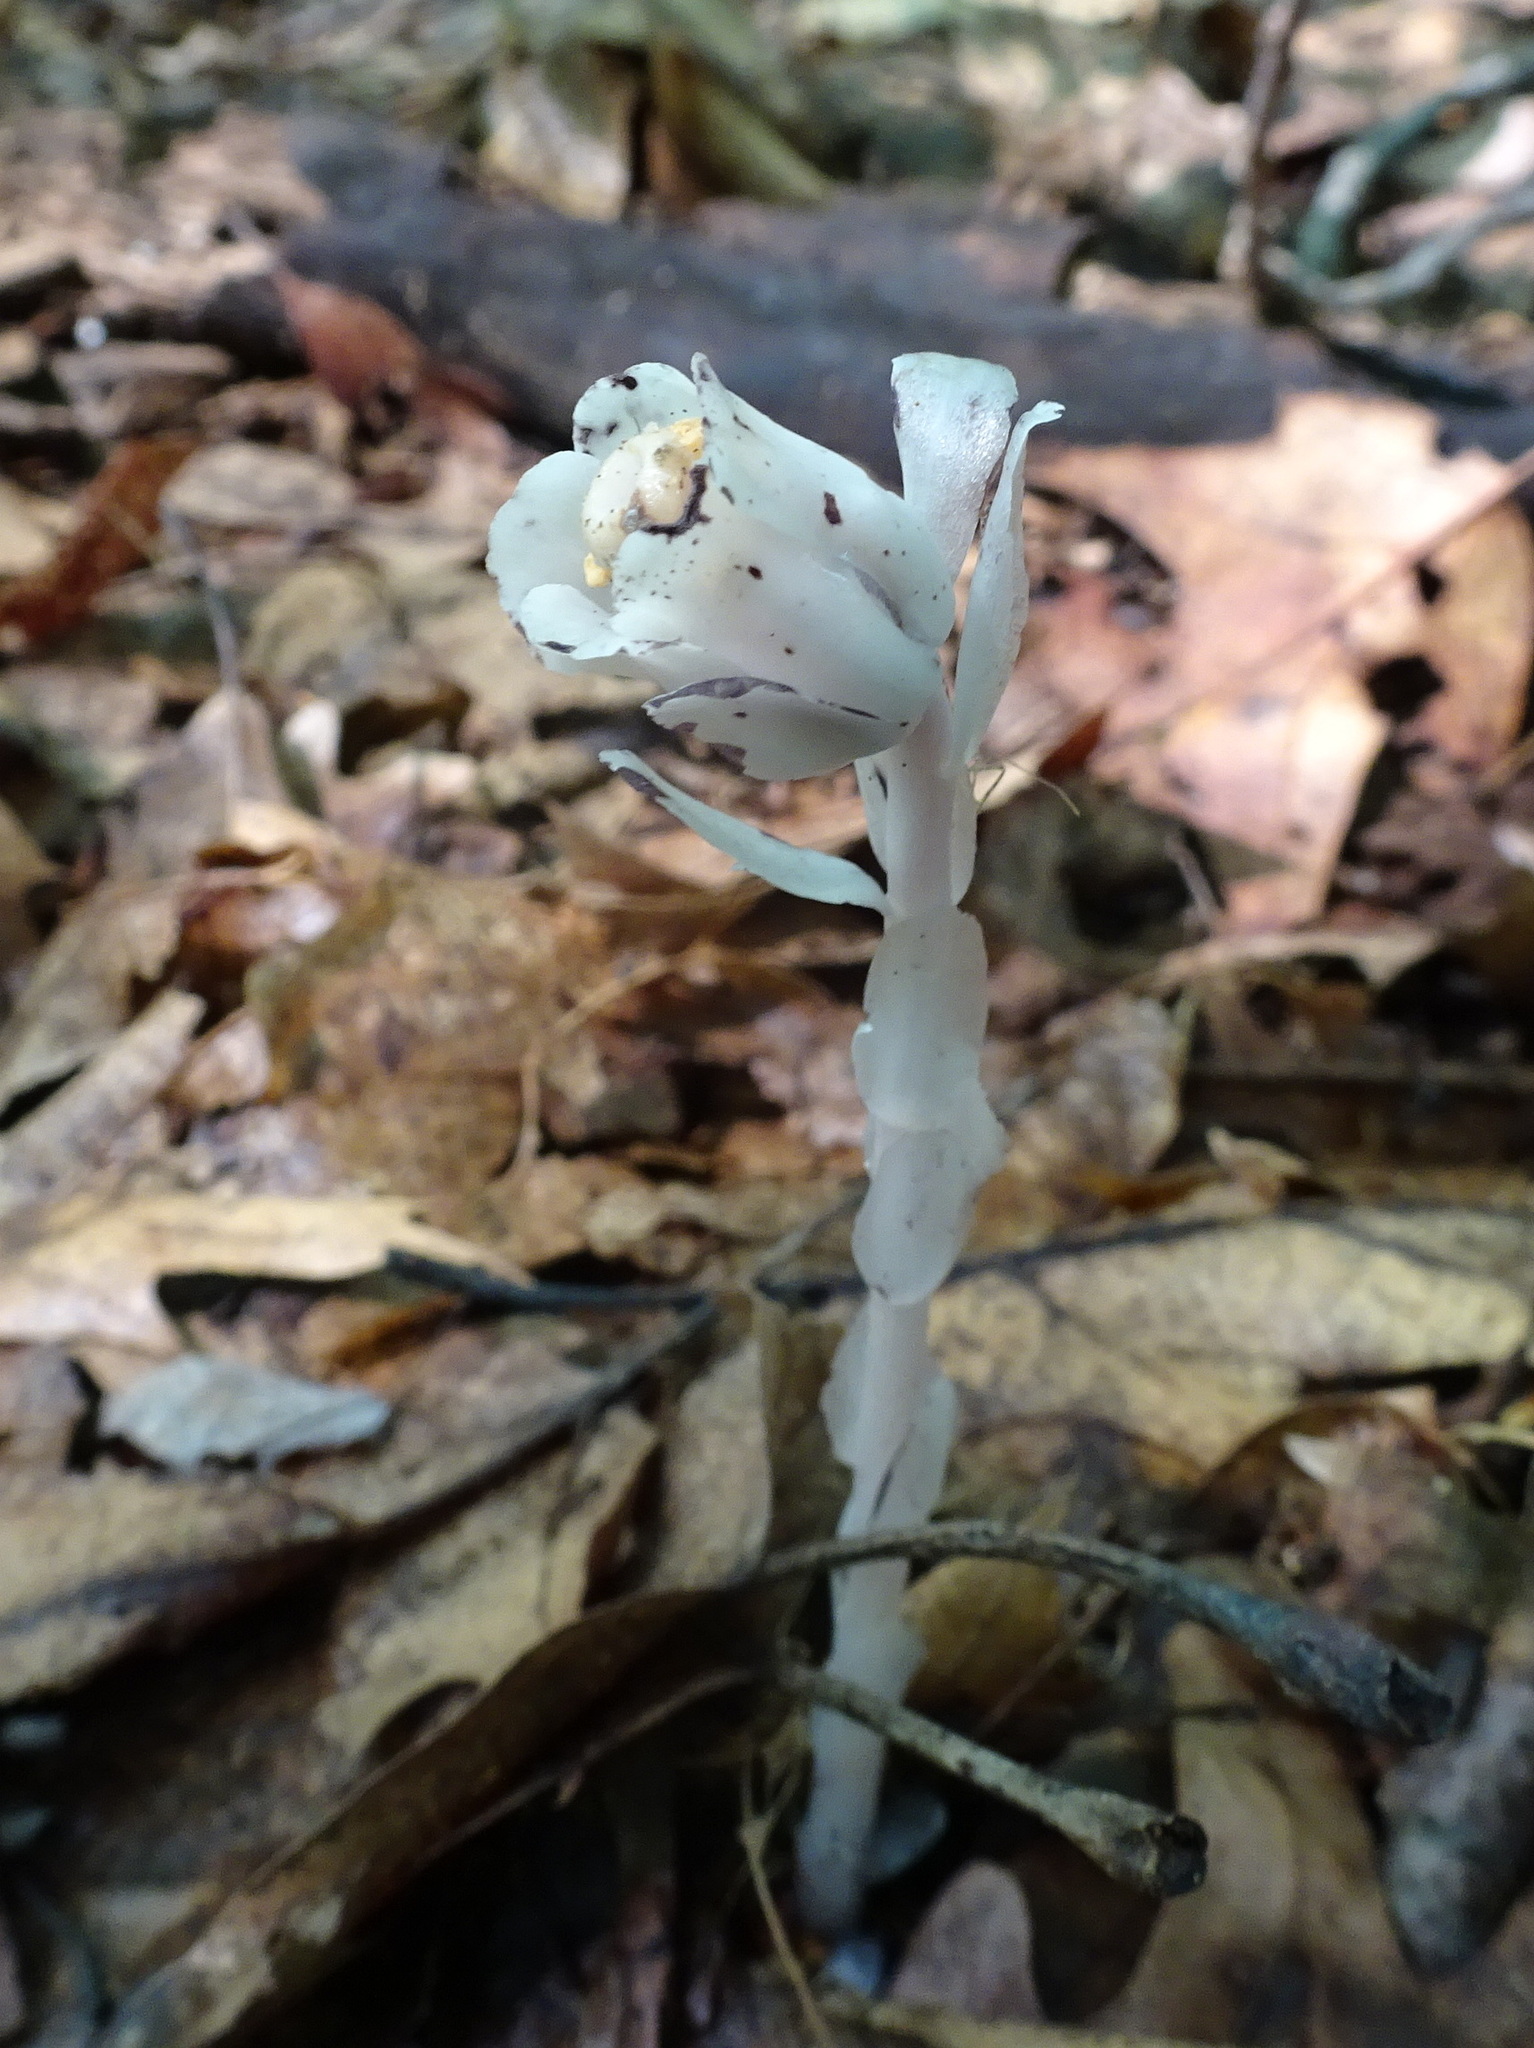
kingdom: Plantae
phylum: Tracheophyta
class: Magnoliopsida
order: Ericales
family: Ericaceae
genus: Monotropa
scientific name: Monotropa uniflora
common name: Convulsion root
